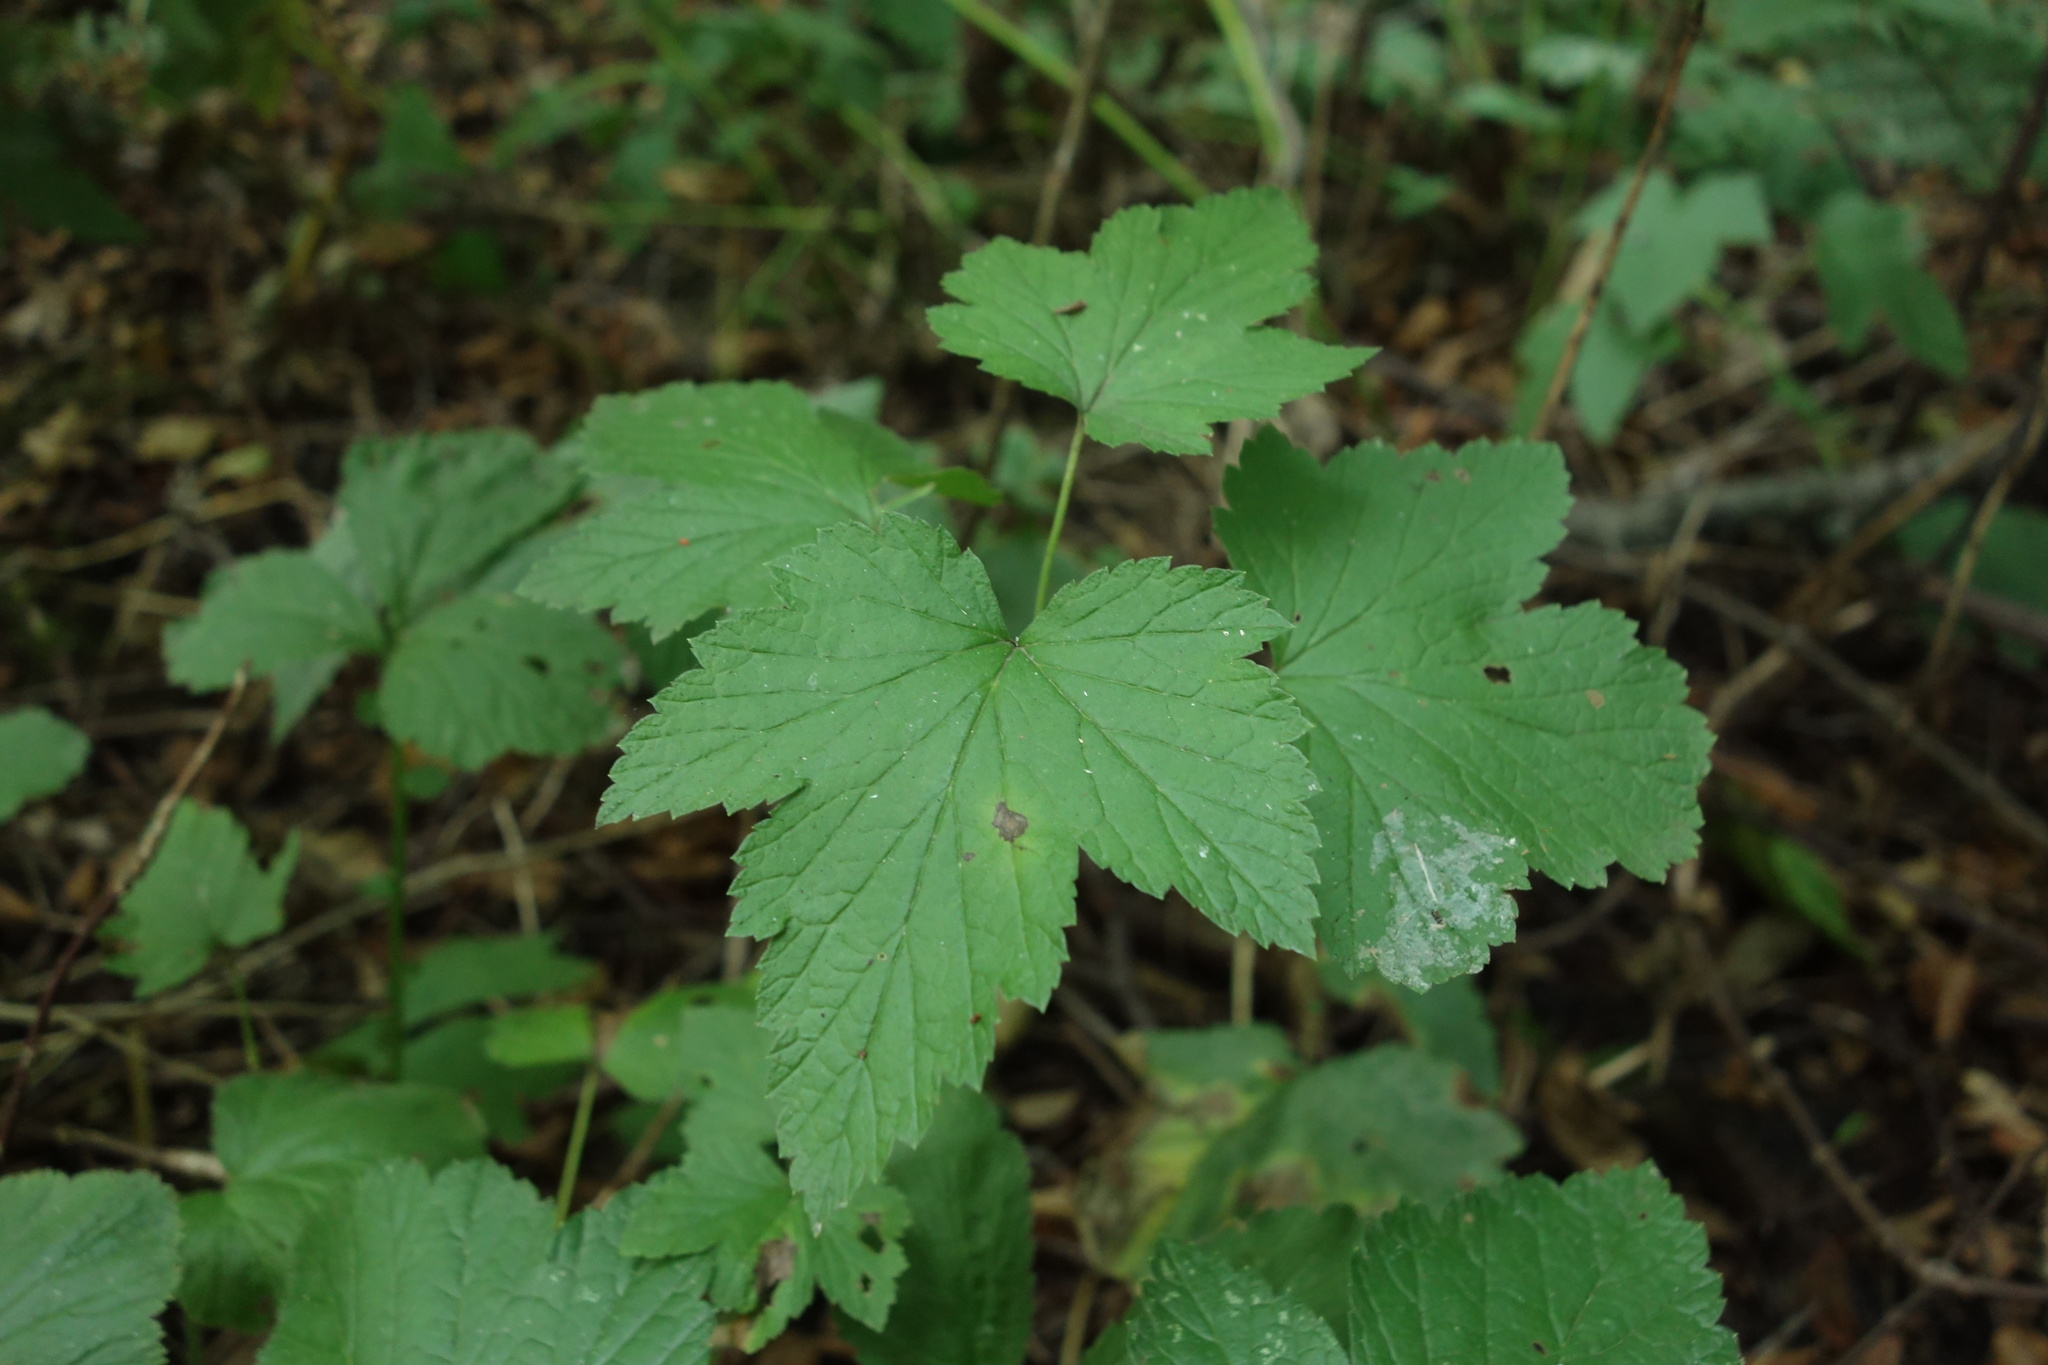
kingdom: Plantae
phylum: Tracheophyta
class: Magnoliopsida
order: Saxifragales
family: Grossulariaceae
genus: Ribes
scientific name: Ribes nigrum
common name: Black currant
